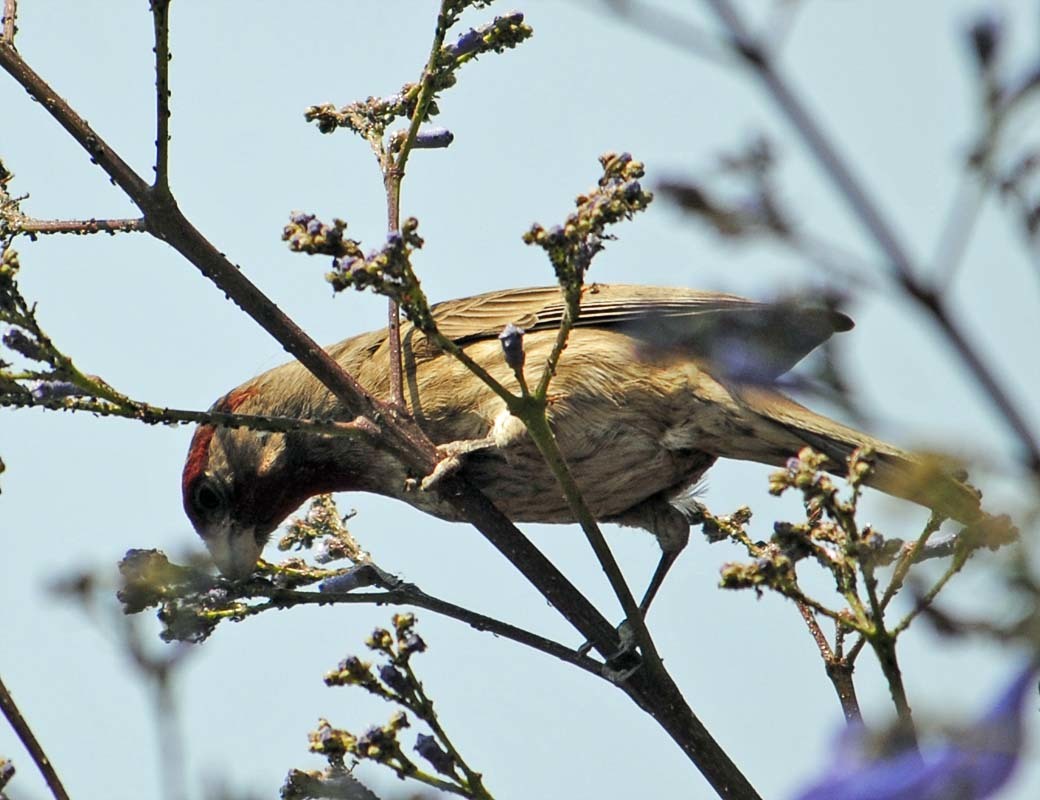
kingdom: Animalia
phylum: Chordata
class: Aves
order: Passeriformes
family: Fringillidae
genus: Haemorhous
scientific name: Haemorhous mexicanus
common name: House finch
